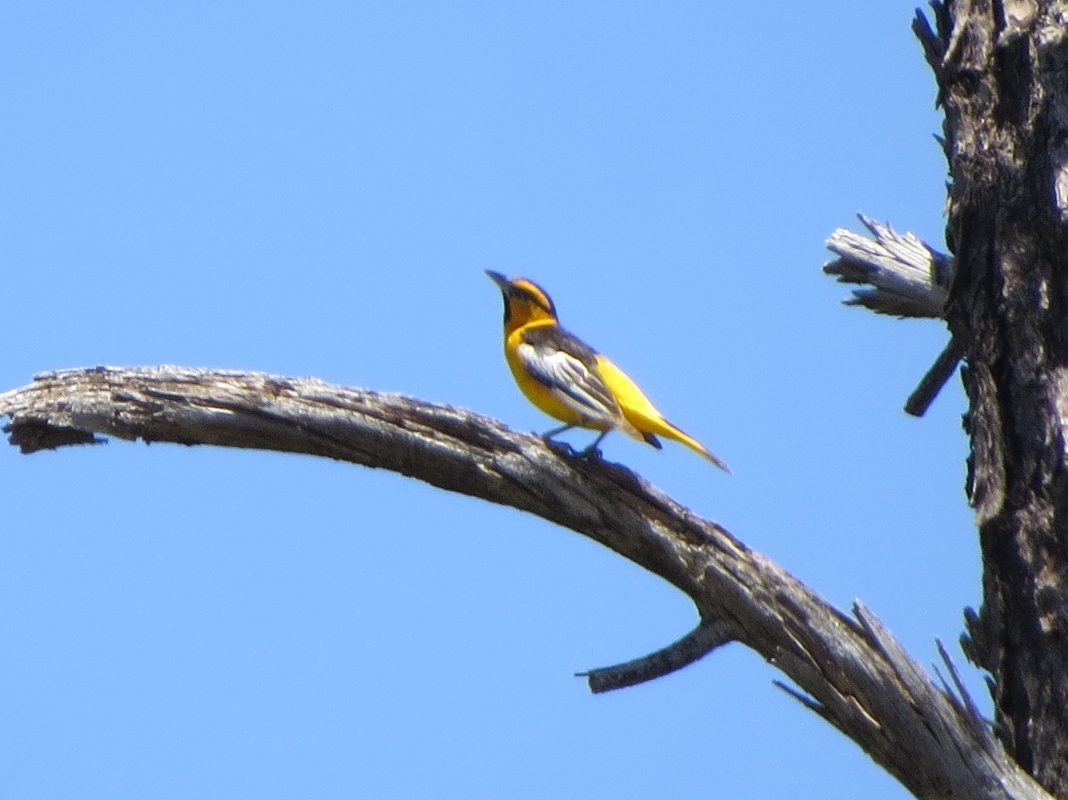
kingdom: Animalia
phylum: Chordata
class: Aves
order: Passeriformes
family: Icteridae
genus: Icterus
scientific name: Icterus bullockii
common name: Bullock's oriole
